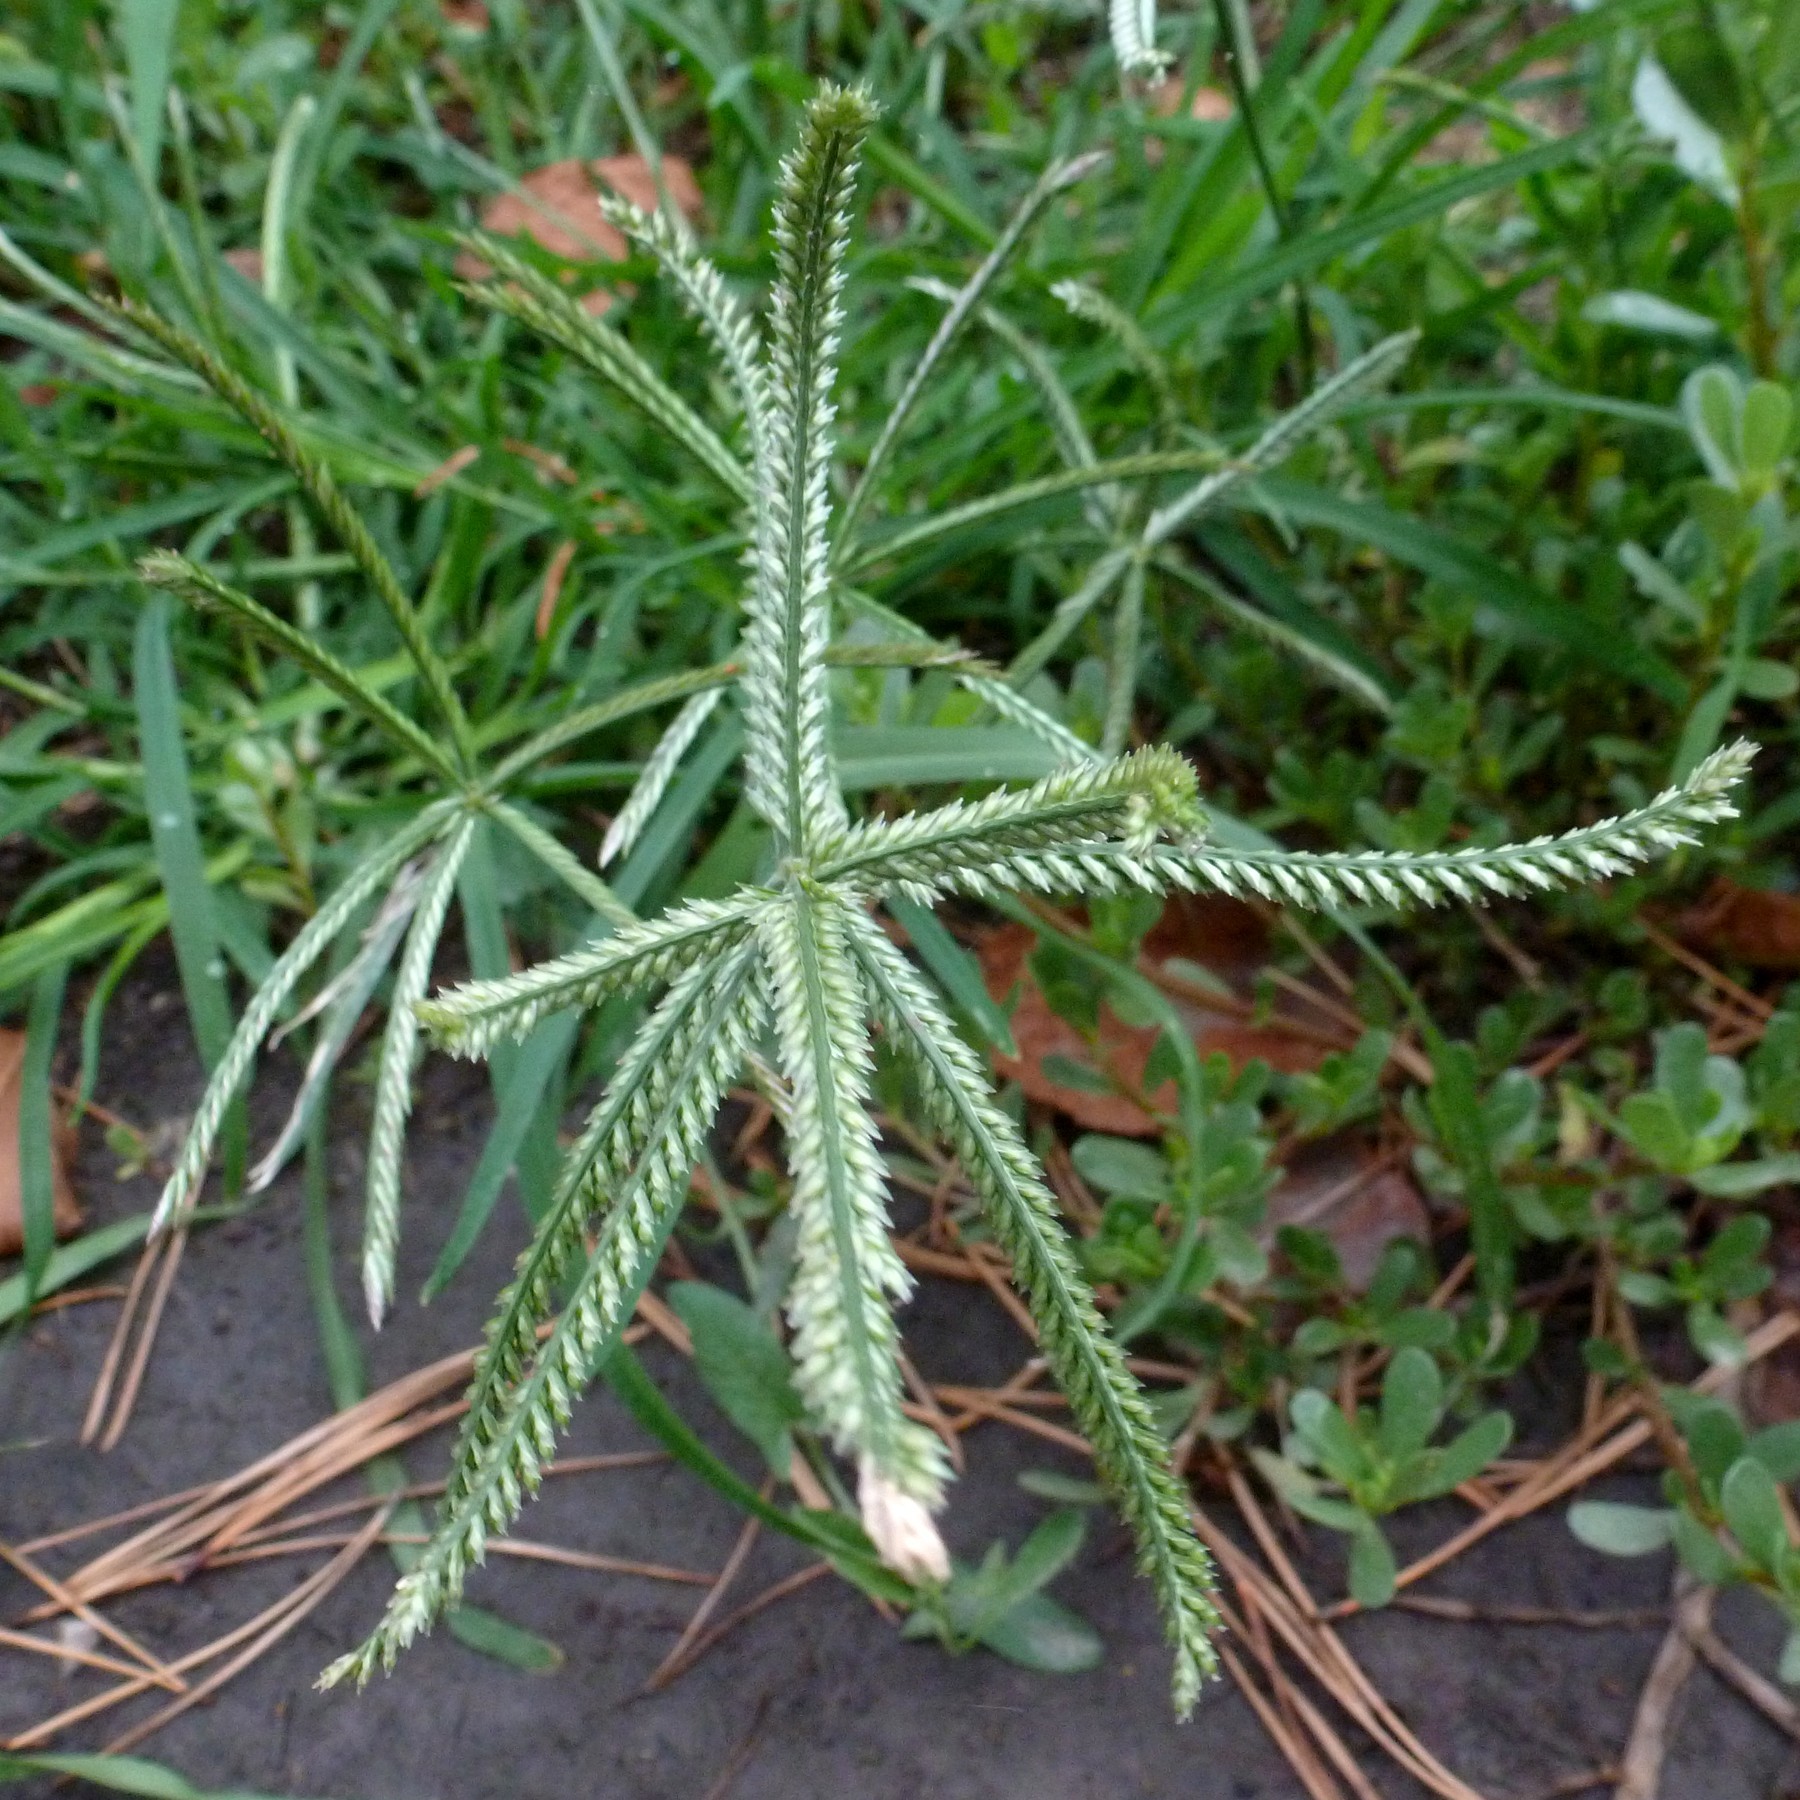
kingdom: Plantae
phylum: Tracheophyta
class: Liliopsida
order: Poales
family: Poaceae
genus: Eleusine
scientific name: Eleusine indica
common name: Yard-grass
